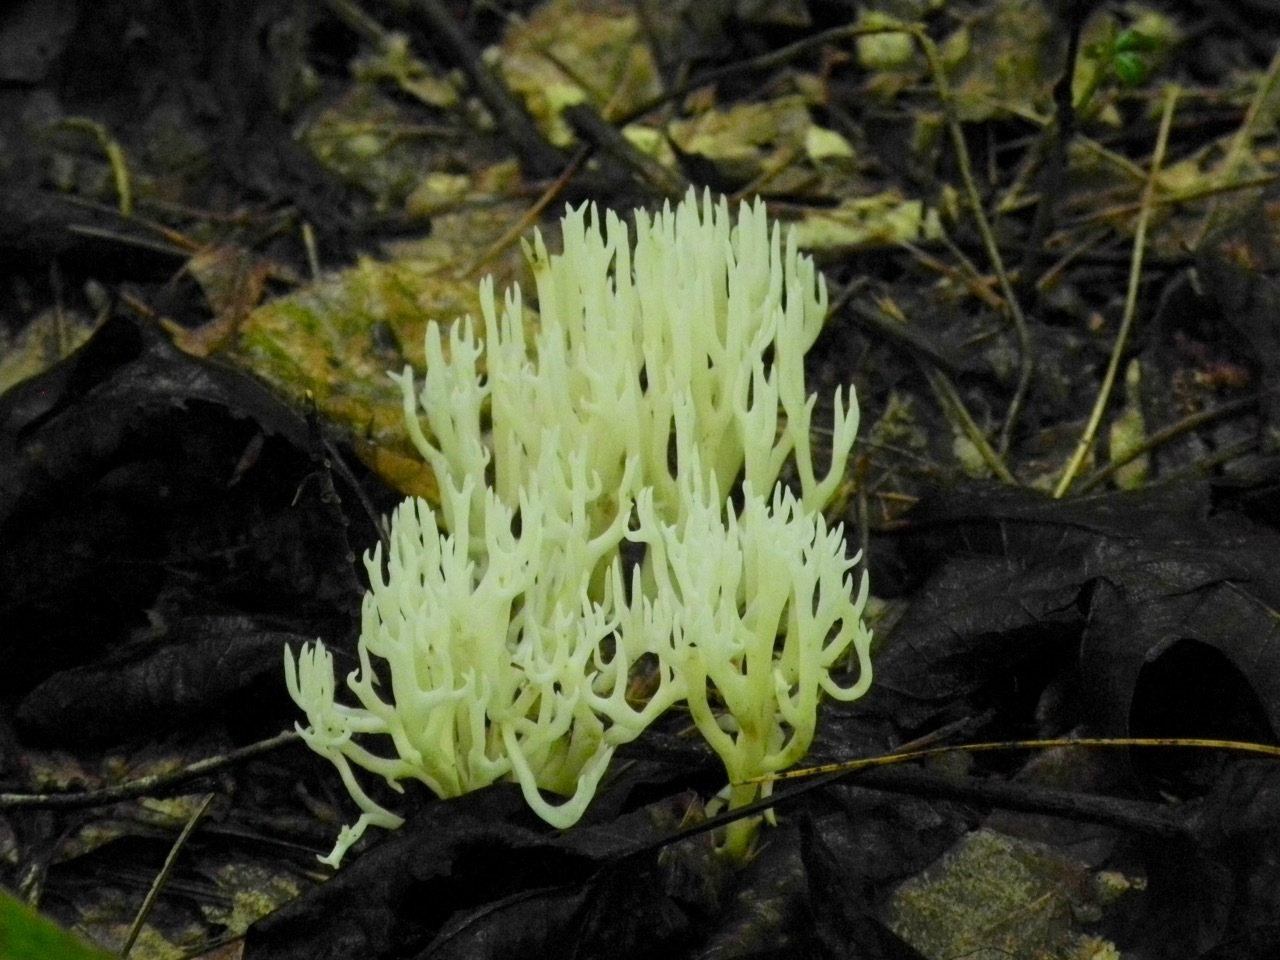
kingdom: Fungi
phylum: Basidiomycota
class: Agaricomycetes
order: Agaricales
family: Clavariaceae
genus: Ramariopsis
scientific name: Ramariopsis kunzei
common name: Ivory coral
